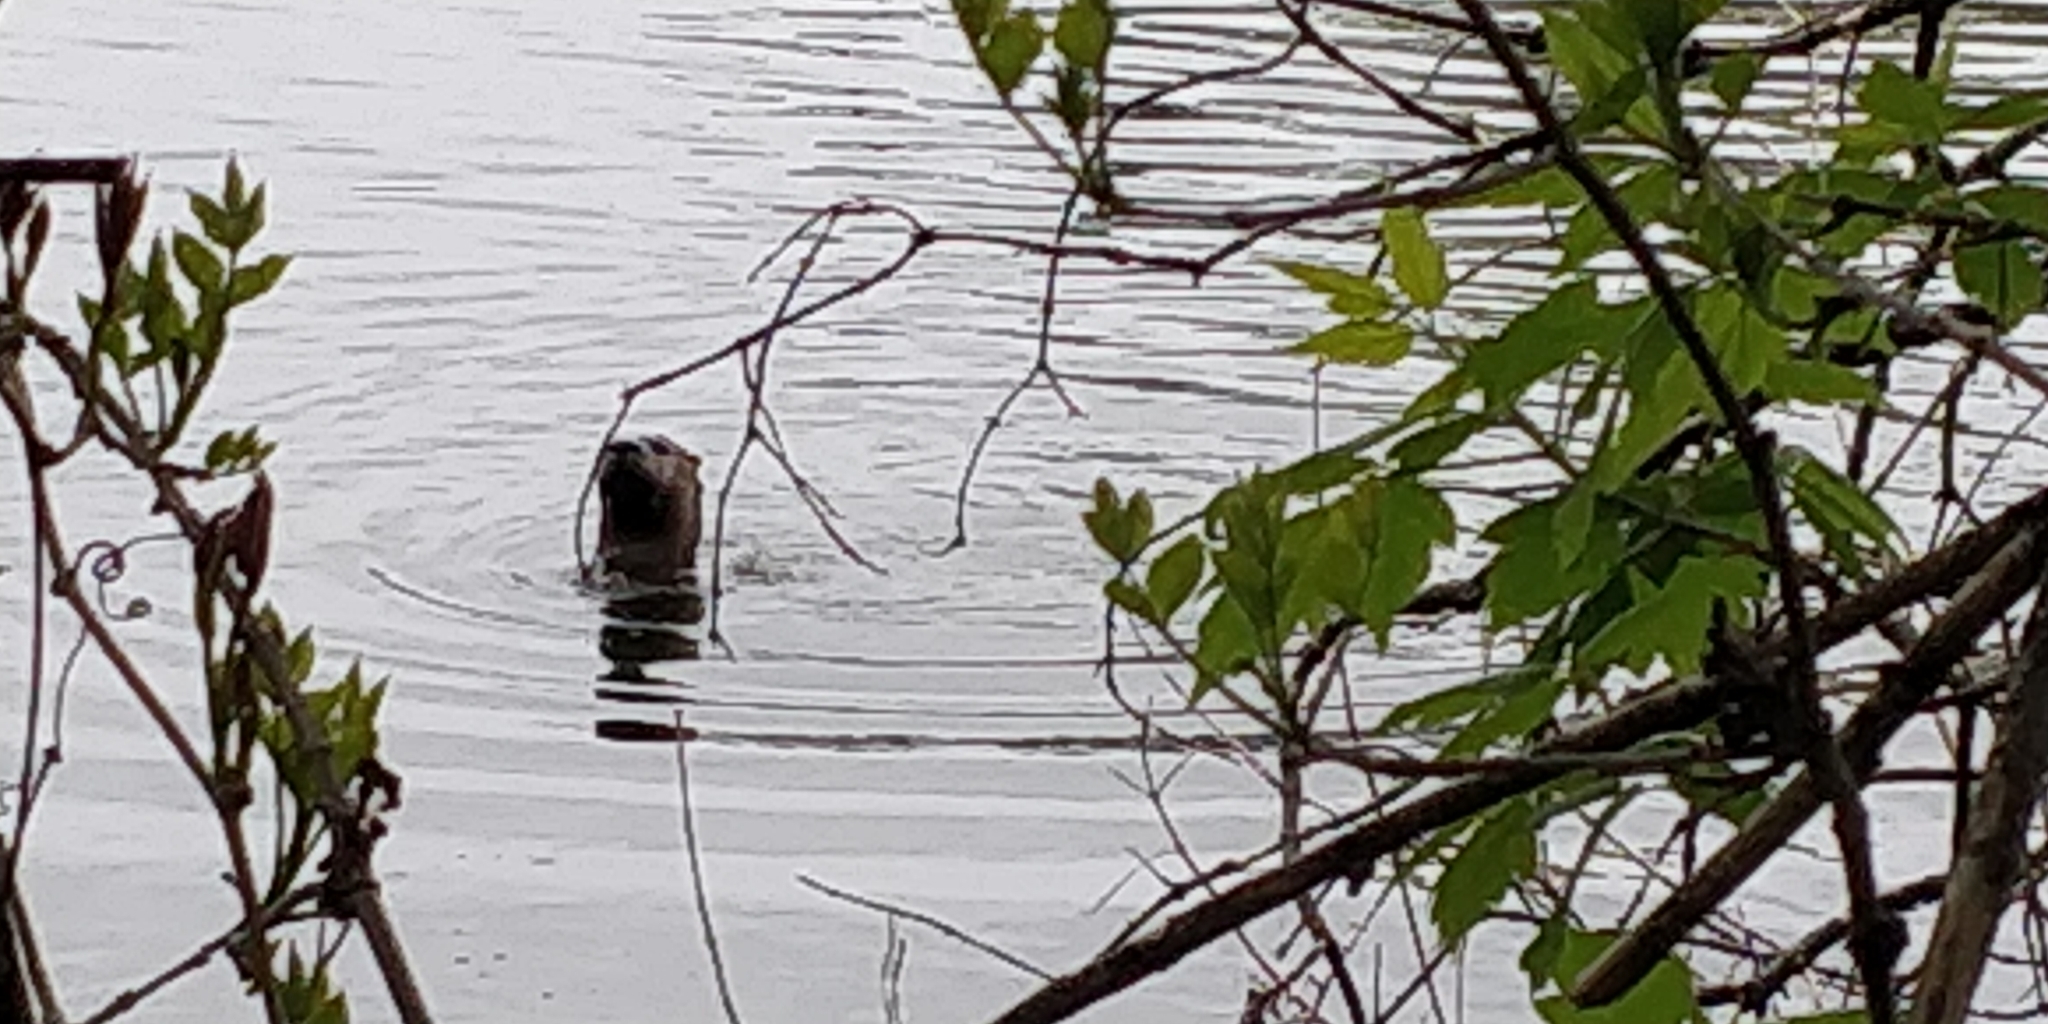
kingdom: Animalia
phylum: Chordata
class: Mammalia
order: Carnivora
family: Mustelidae
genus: Lontra
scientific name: Lontra canadensis
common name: North american river otter
